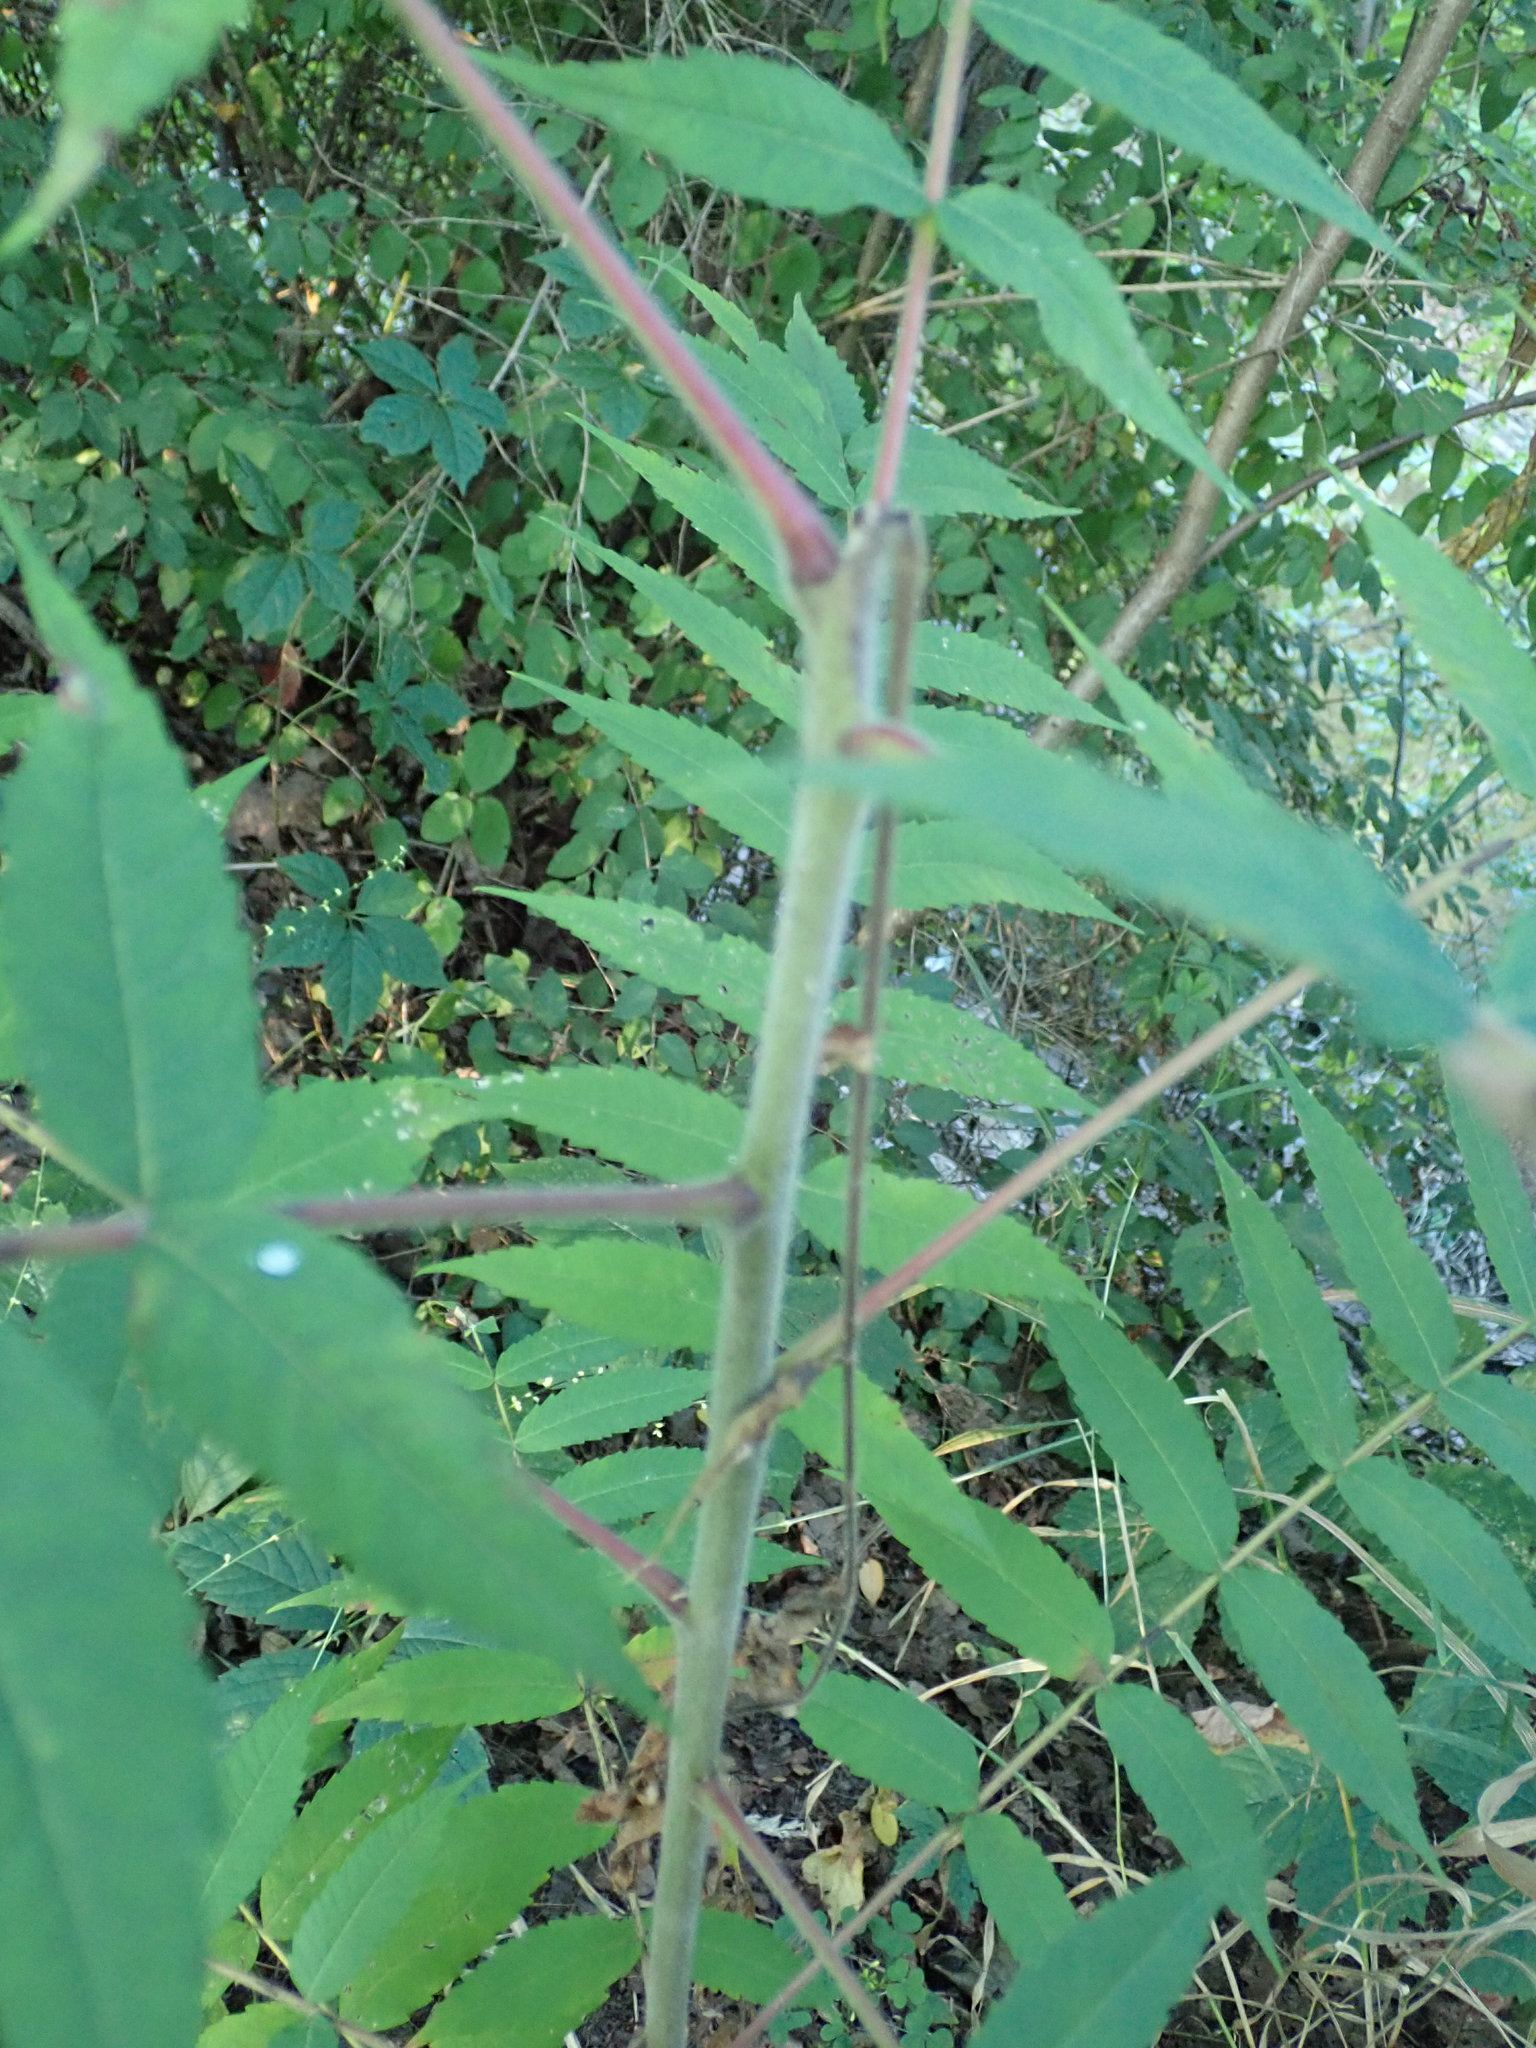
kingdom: Plantae
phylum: Tracheophyta
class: Magnoliopsida
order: Sapindales
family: Anacardiaceae
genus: Rhus
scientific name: Rhus typhina
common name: Staghorn sumac
